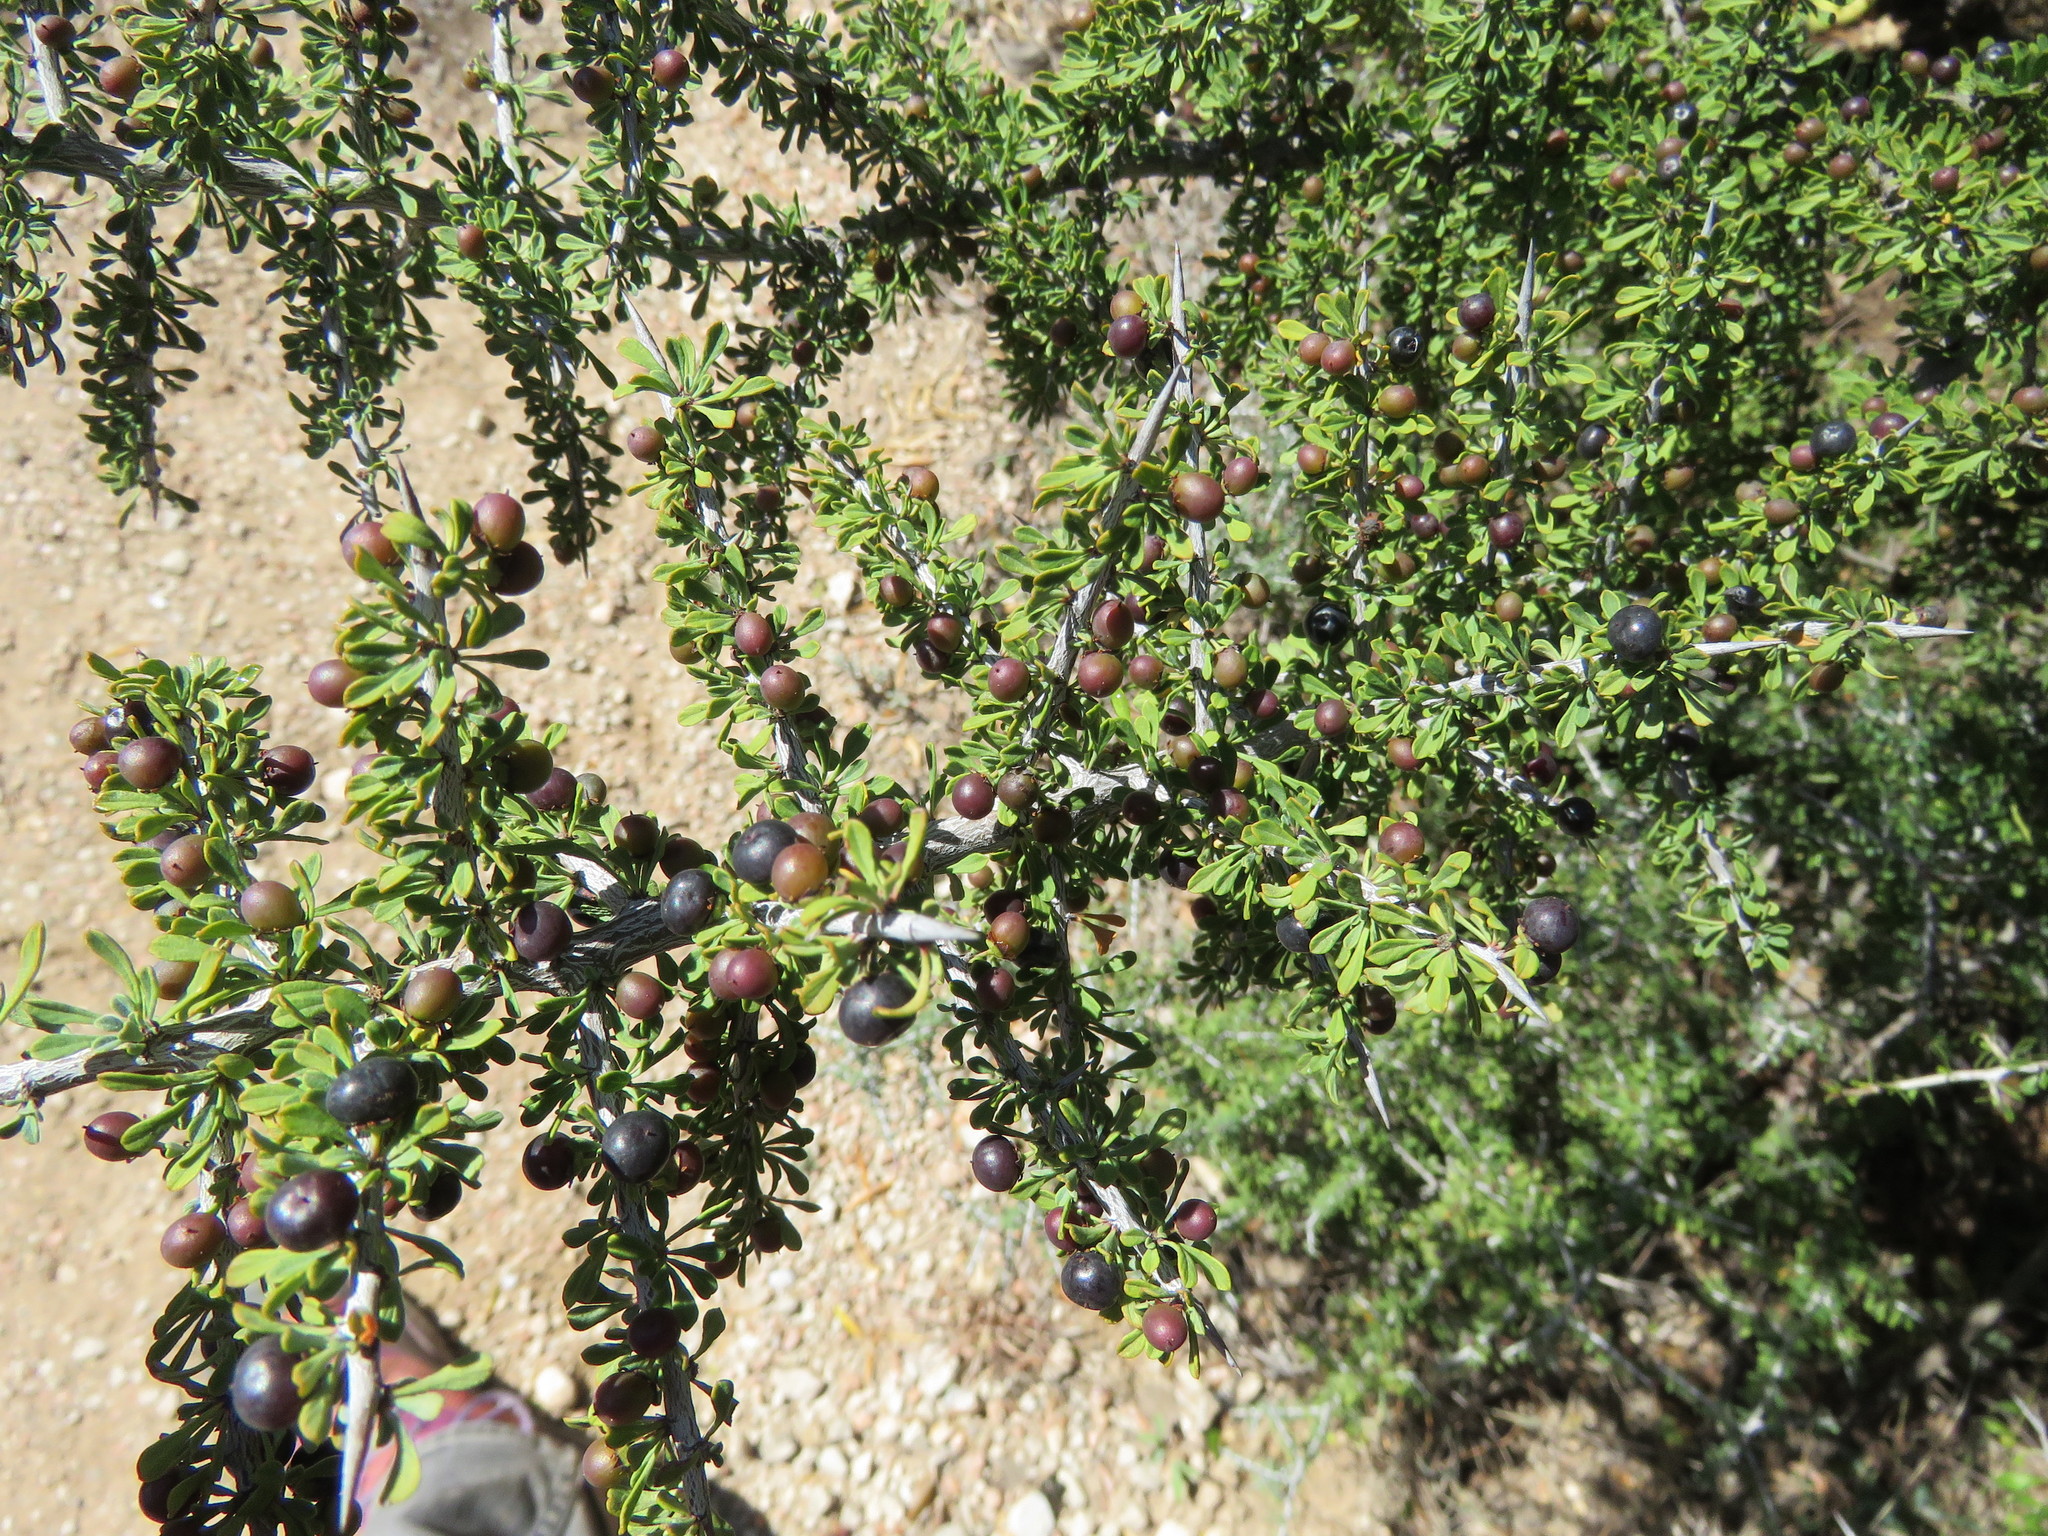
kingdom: Plantae
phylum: Tracheophyta
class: Magnoliopsida
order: Rosales
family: Rhamnaceae
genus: Condalia
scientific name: Condalia spathulata
